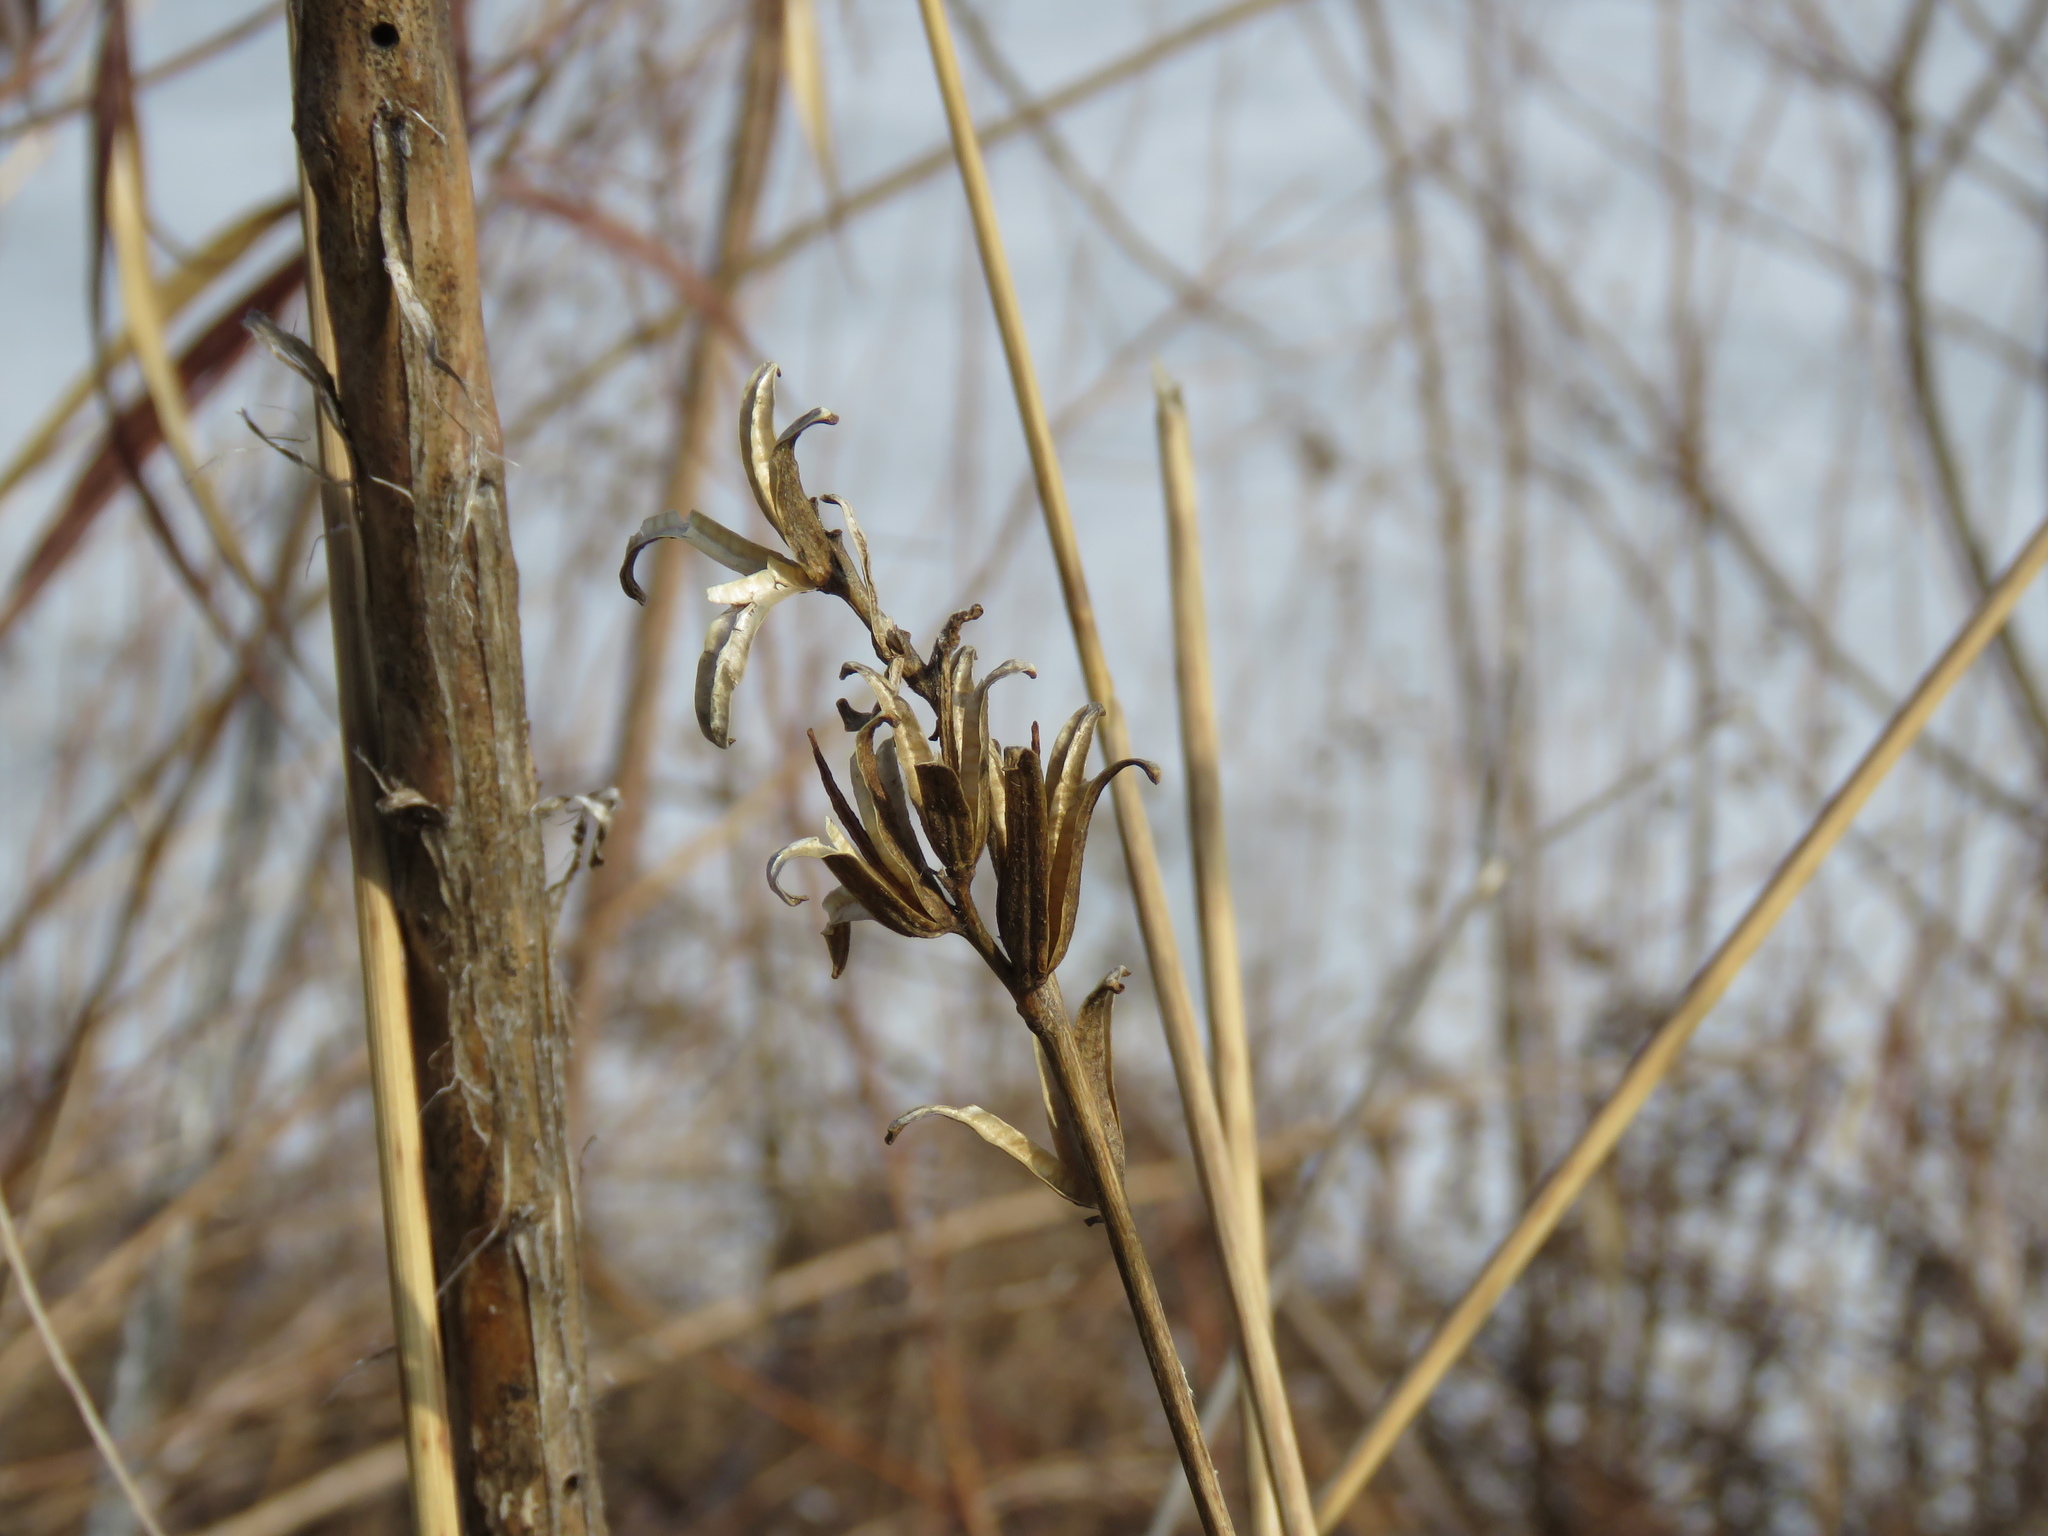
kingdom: Plantae
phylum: Tracheophyta
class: Magnoliopsida
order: Myrtales
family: Onagraceae
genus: Oenothera
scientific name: Oenothera biennis
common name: Common evening-primrose
